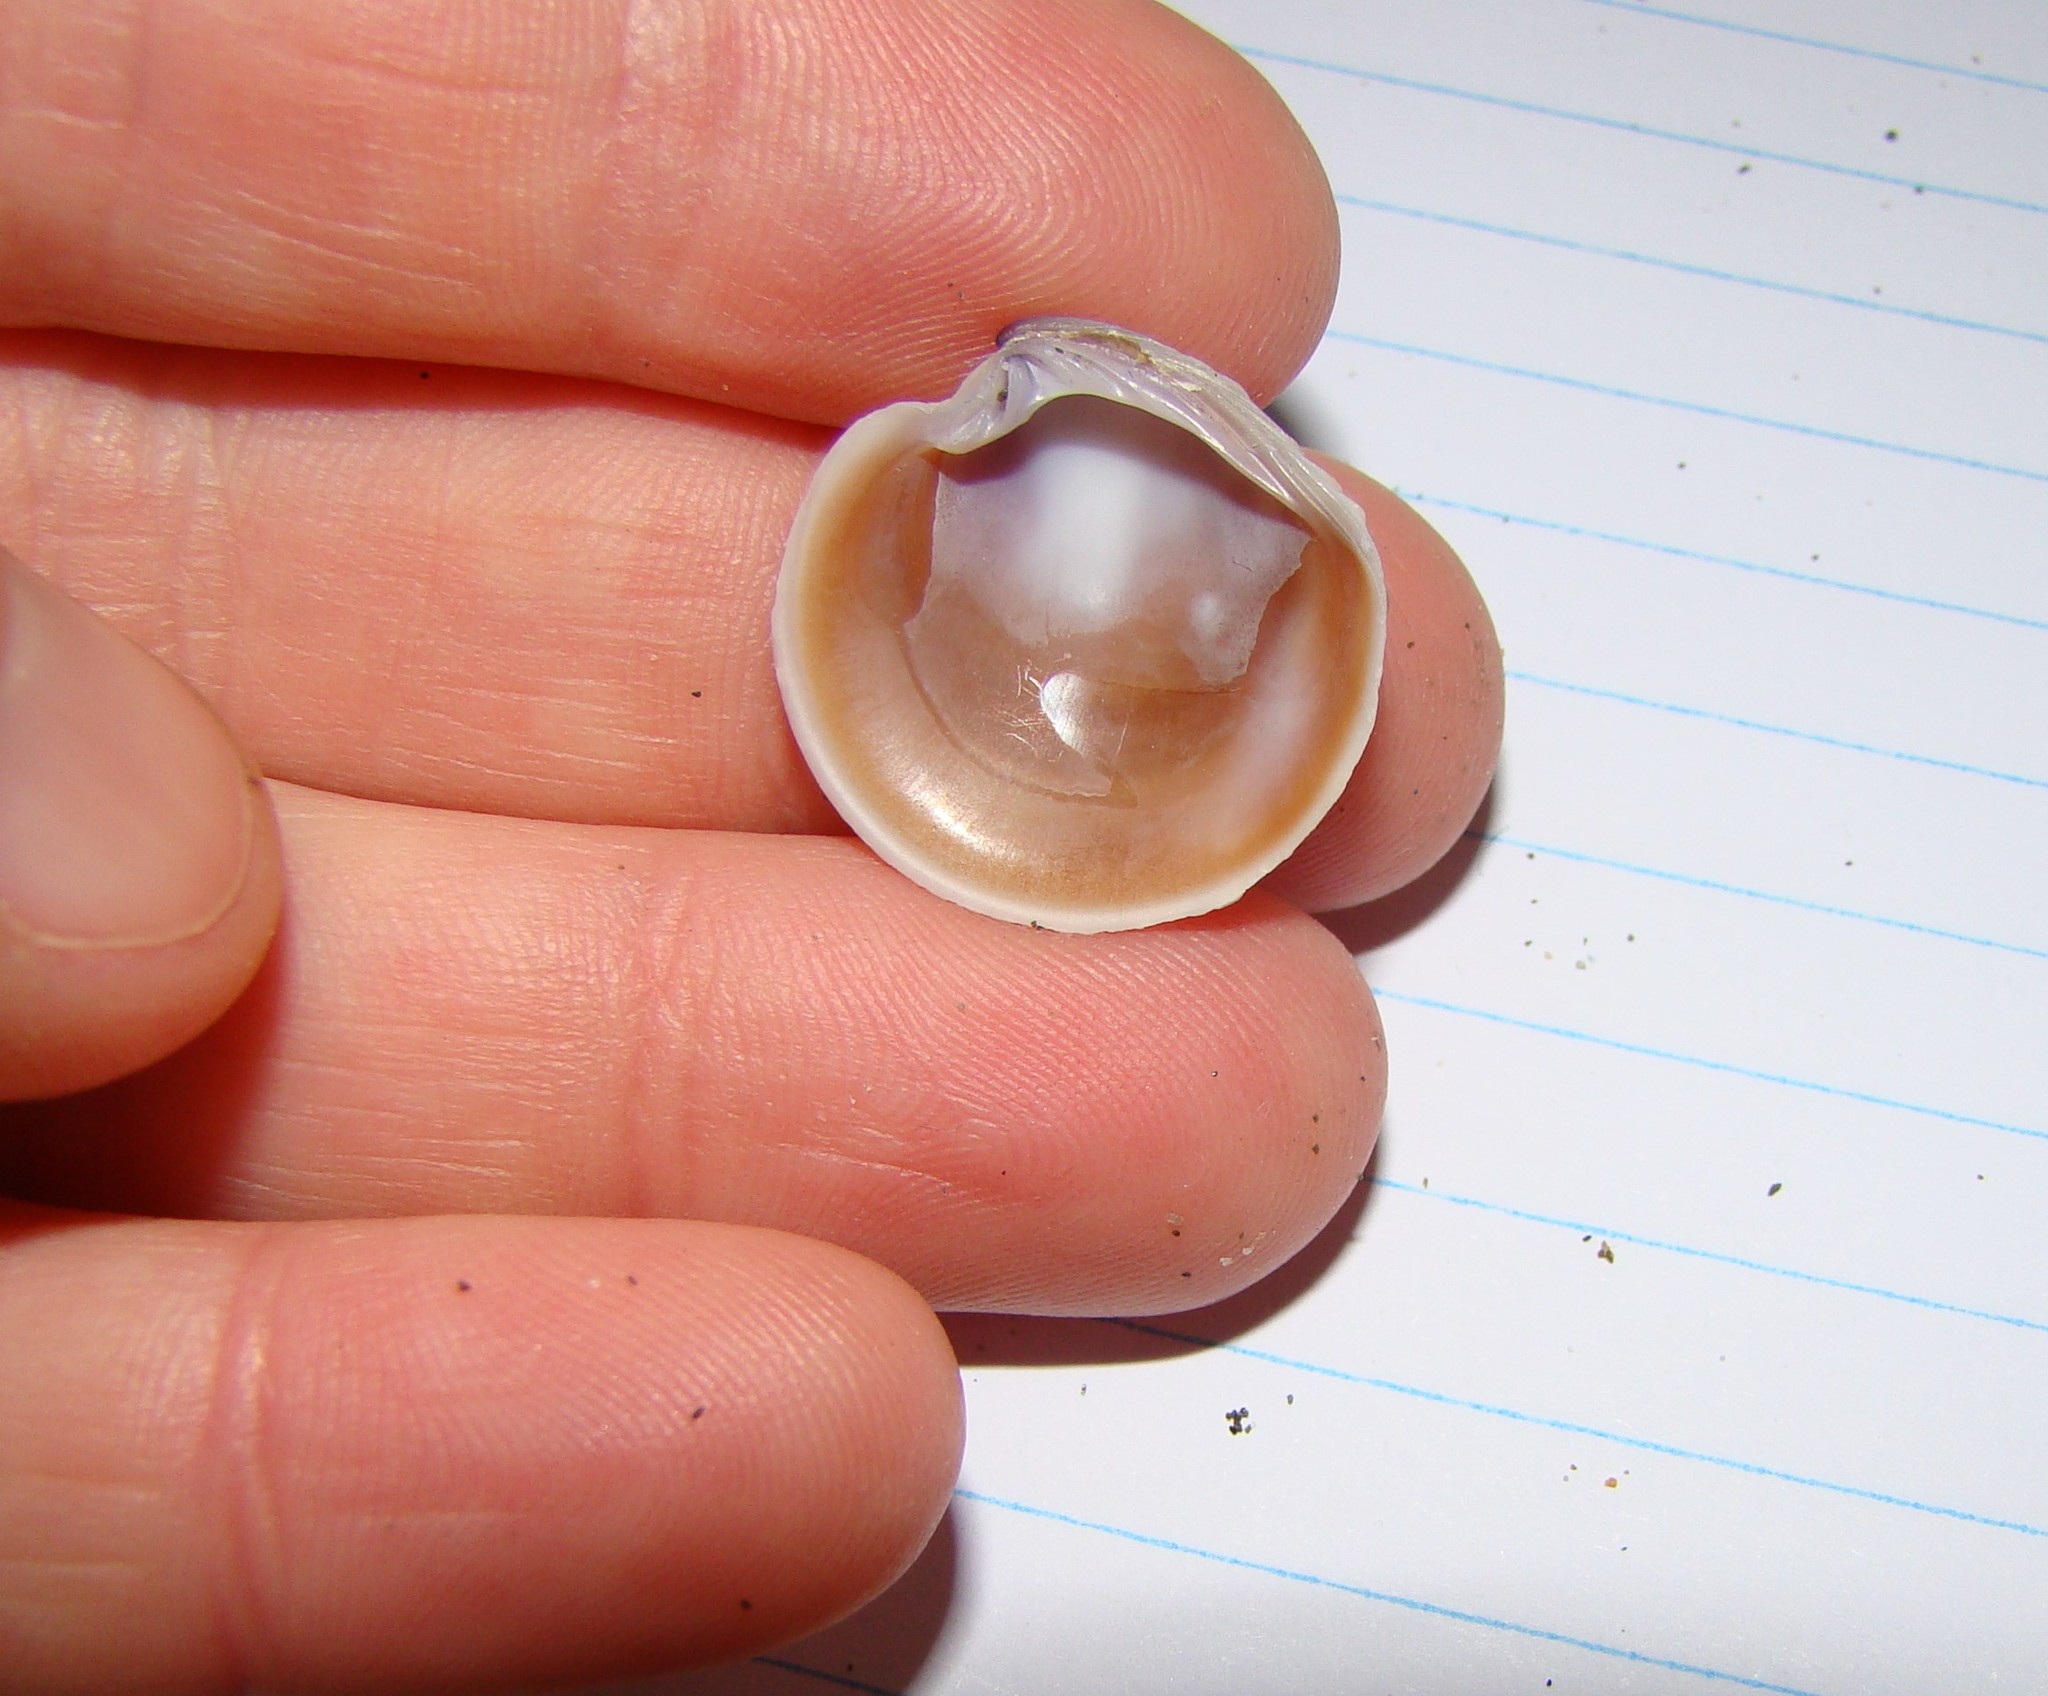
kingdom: Animalia
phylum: Mollusca
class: Bivalvia
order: Venerida
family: Veneridae
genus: Dosinia
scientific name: Dosinia anus
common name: Old-woman dosinia
